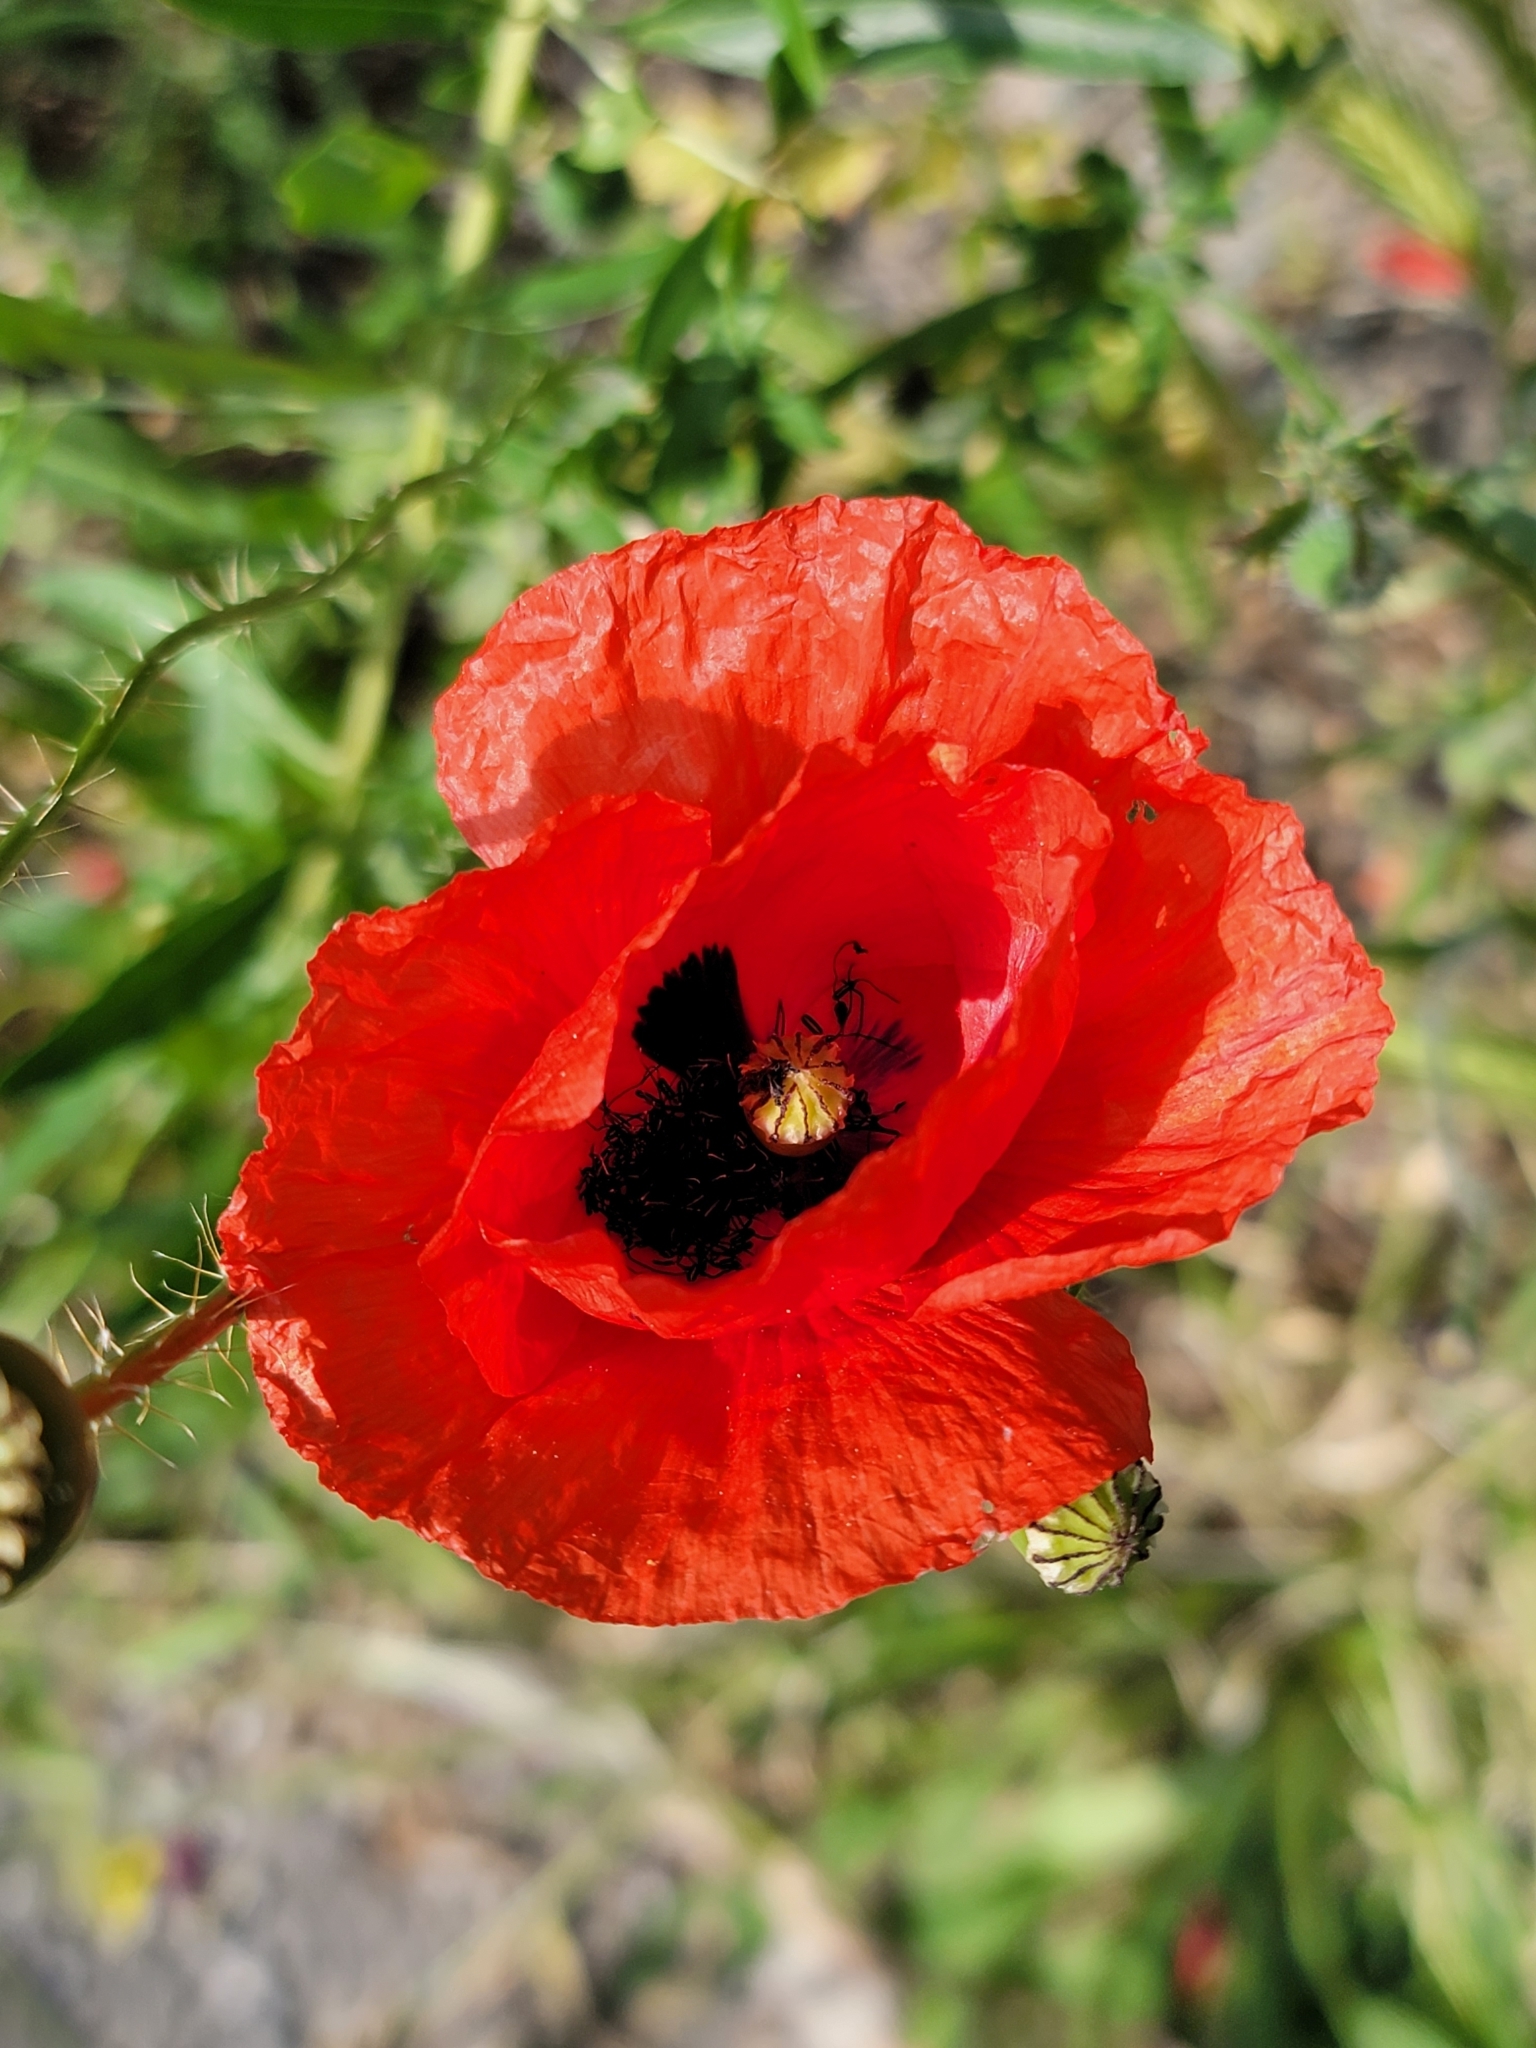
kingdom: Plantae
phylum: Tracheophyta
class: Magnoliopsida
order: Ranunculales
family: Papaveraceae
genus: Papaver
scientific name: Papaver rhoeas
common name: Corn poppy
